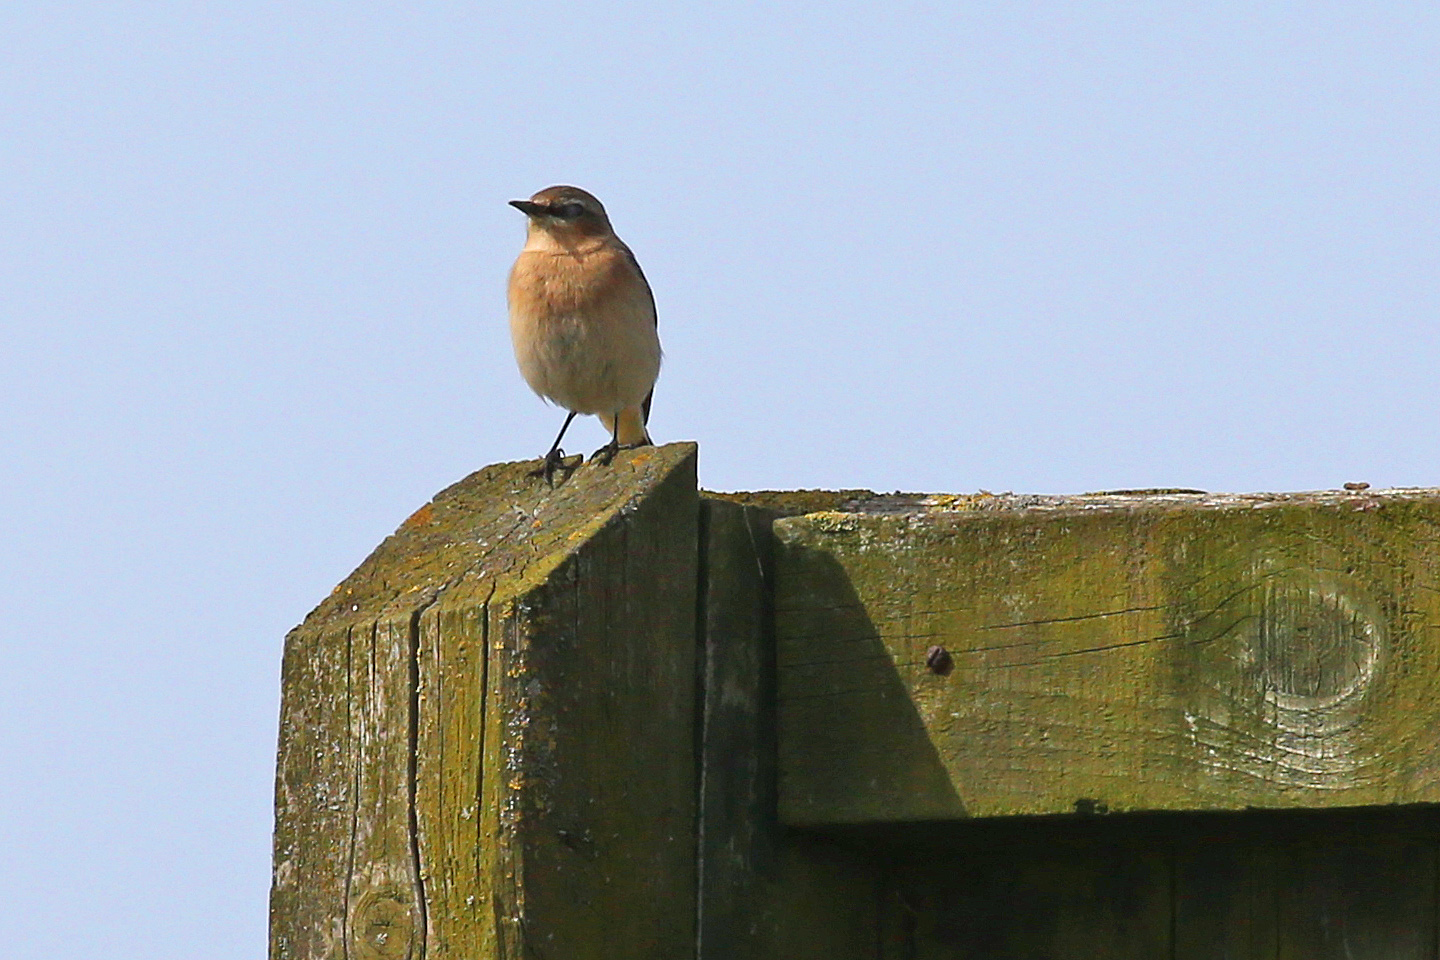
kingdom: Animalia
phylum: Chordata
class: Aves
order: Passeriformes
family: Muscicapidae
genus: Oenanthe
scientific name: Oenanthe oenanthe
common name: Northern wheatear
